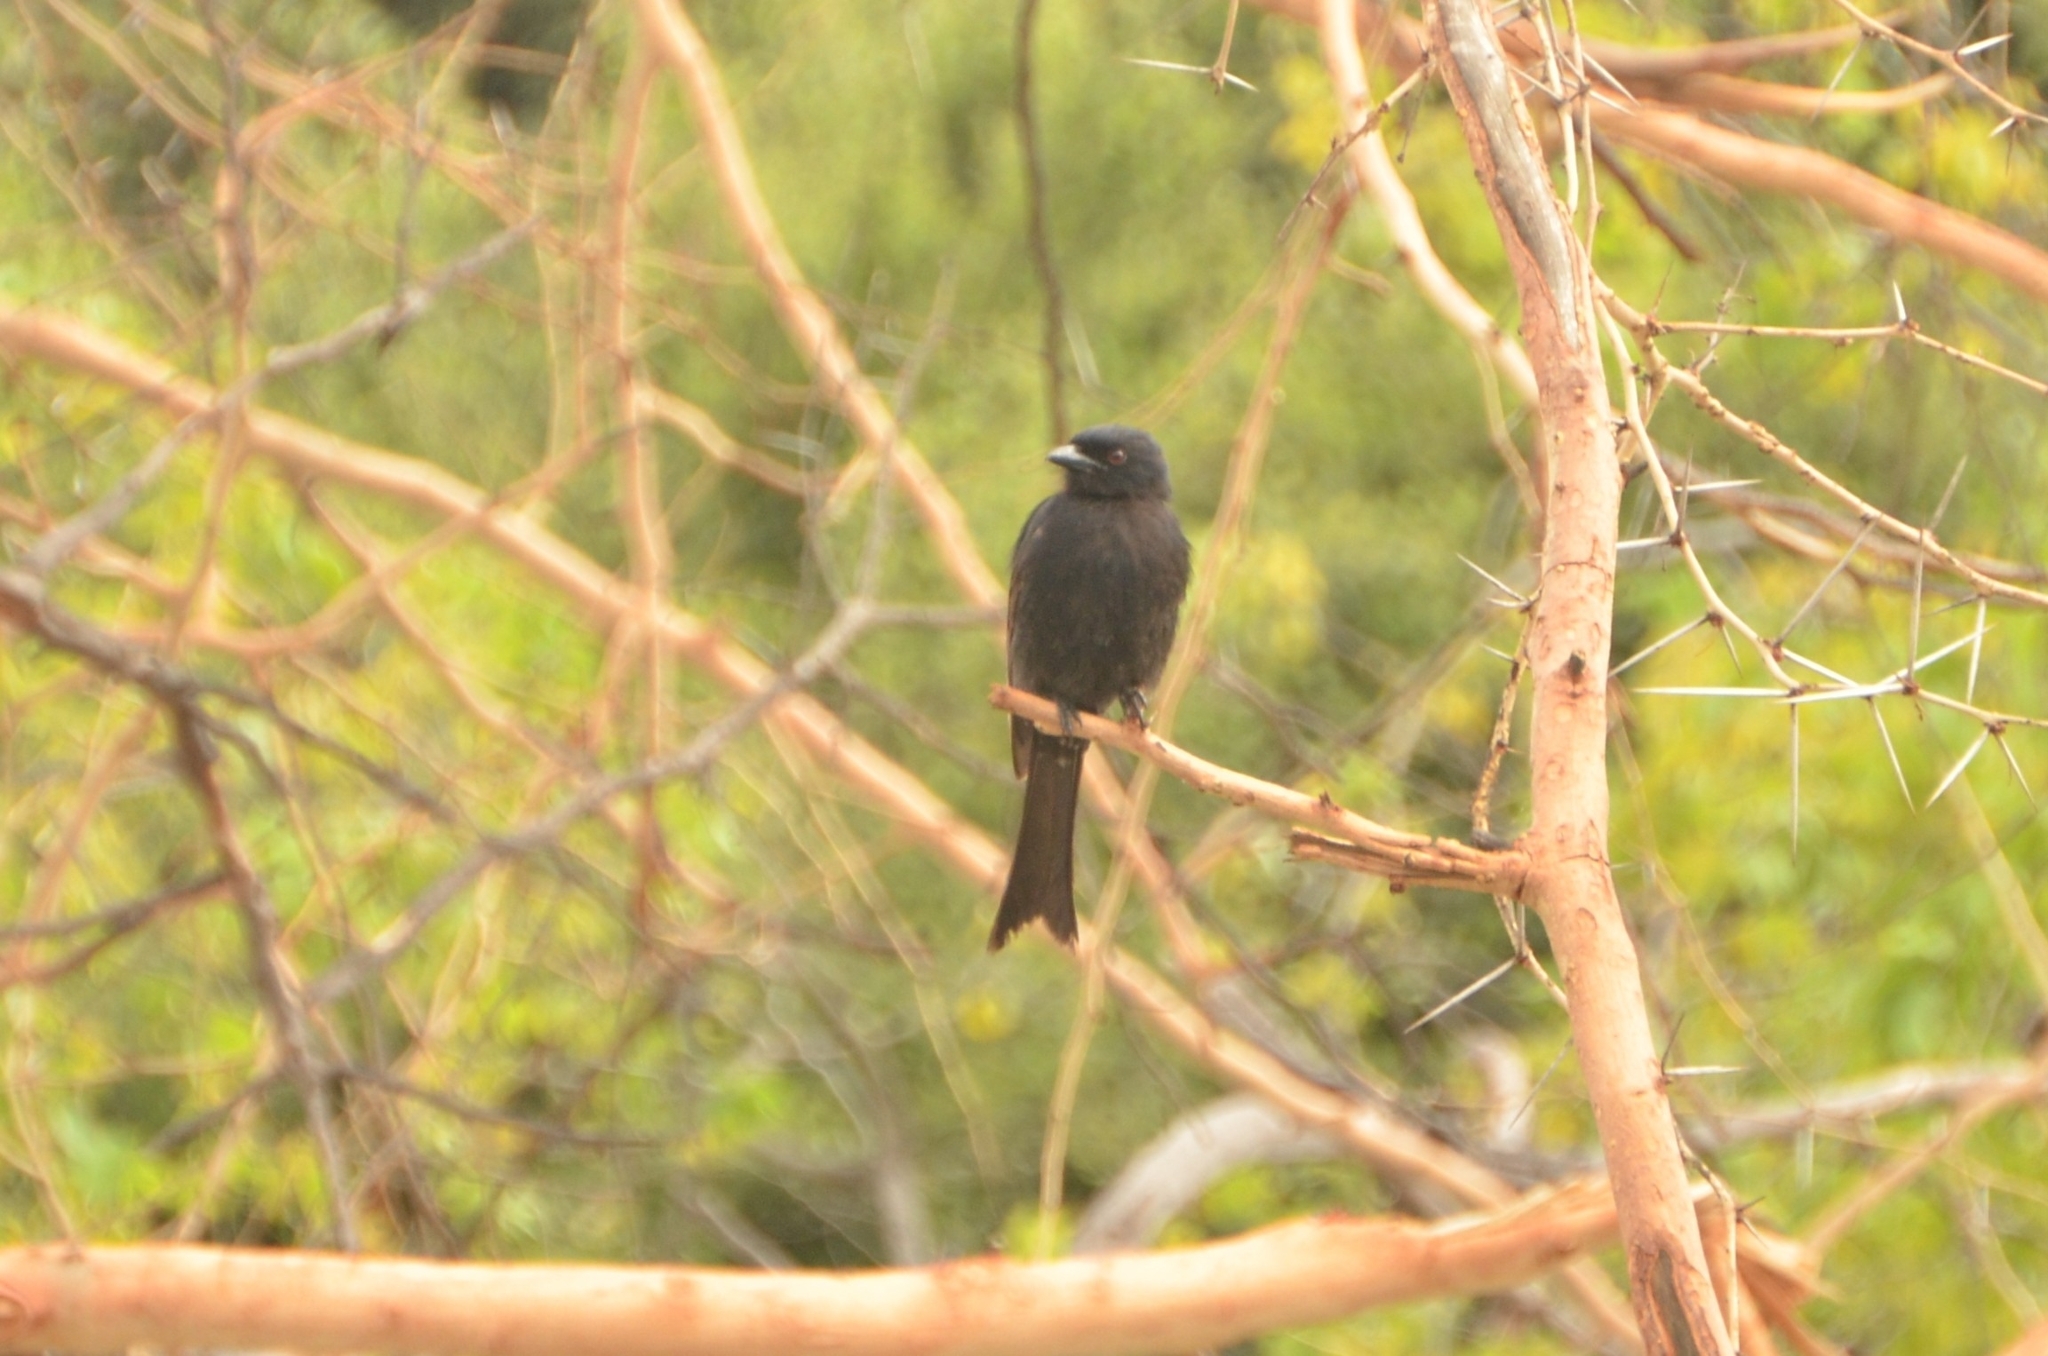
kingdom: Animalia
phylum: Chordata
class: Aves
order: Passeriformes
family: Dicruridae
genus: Dicrurus
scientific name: Dicrurus adsimilis
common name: Fork-tailed drongo
